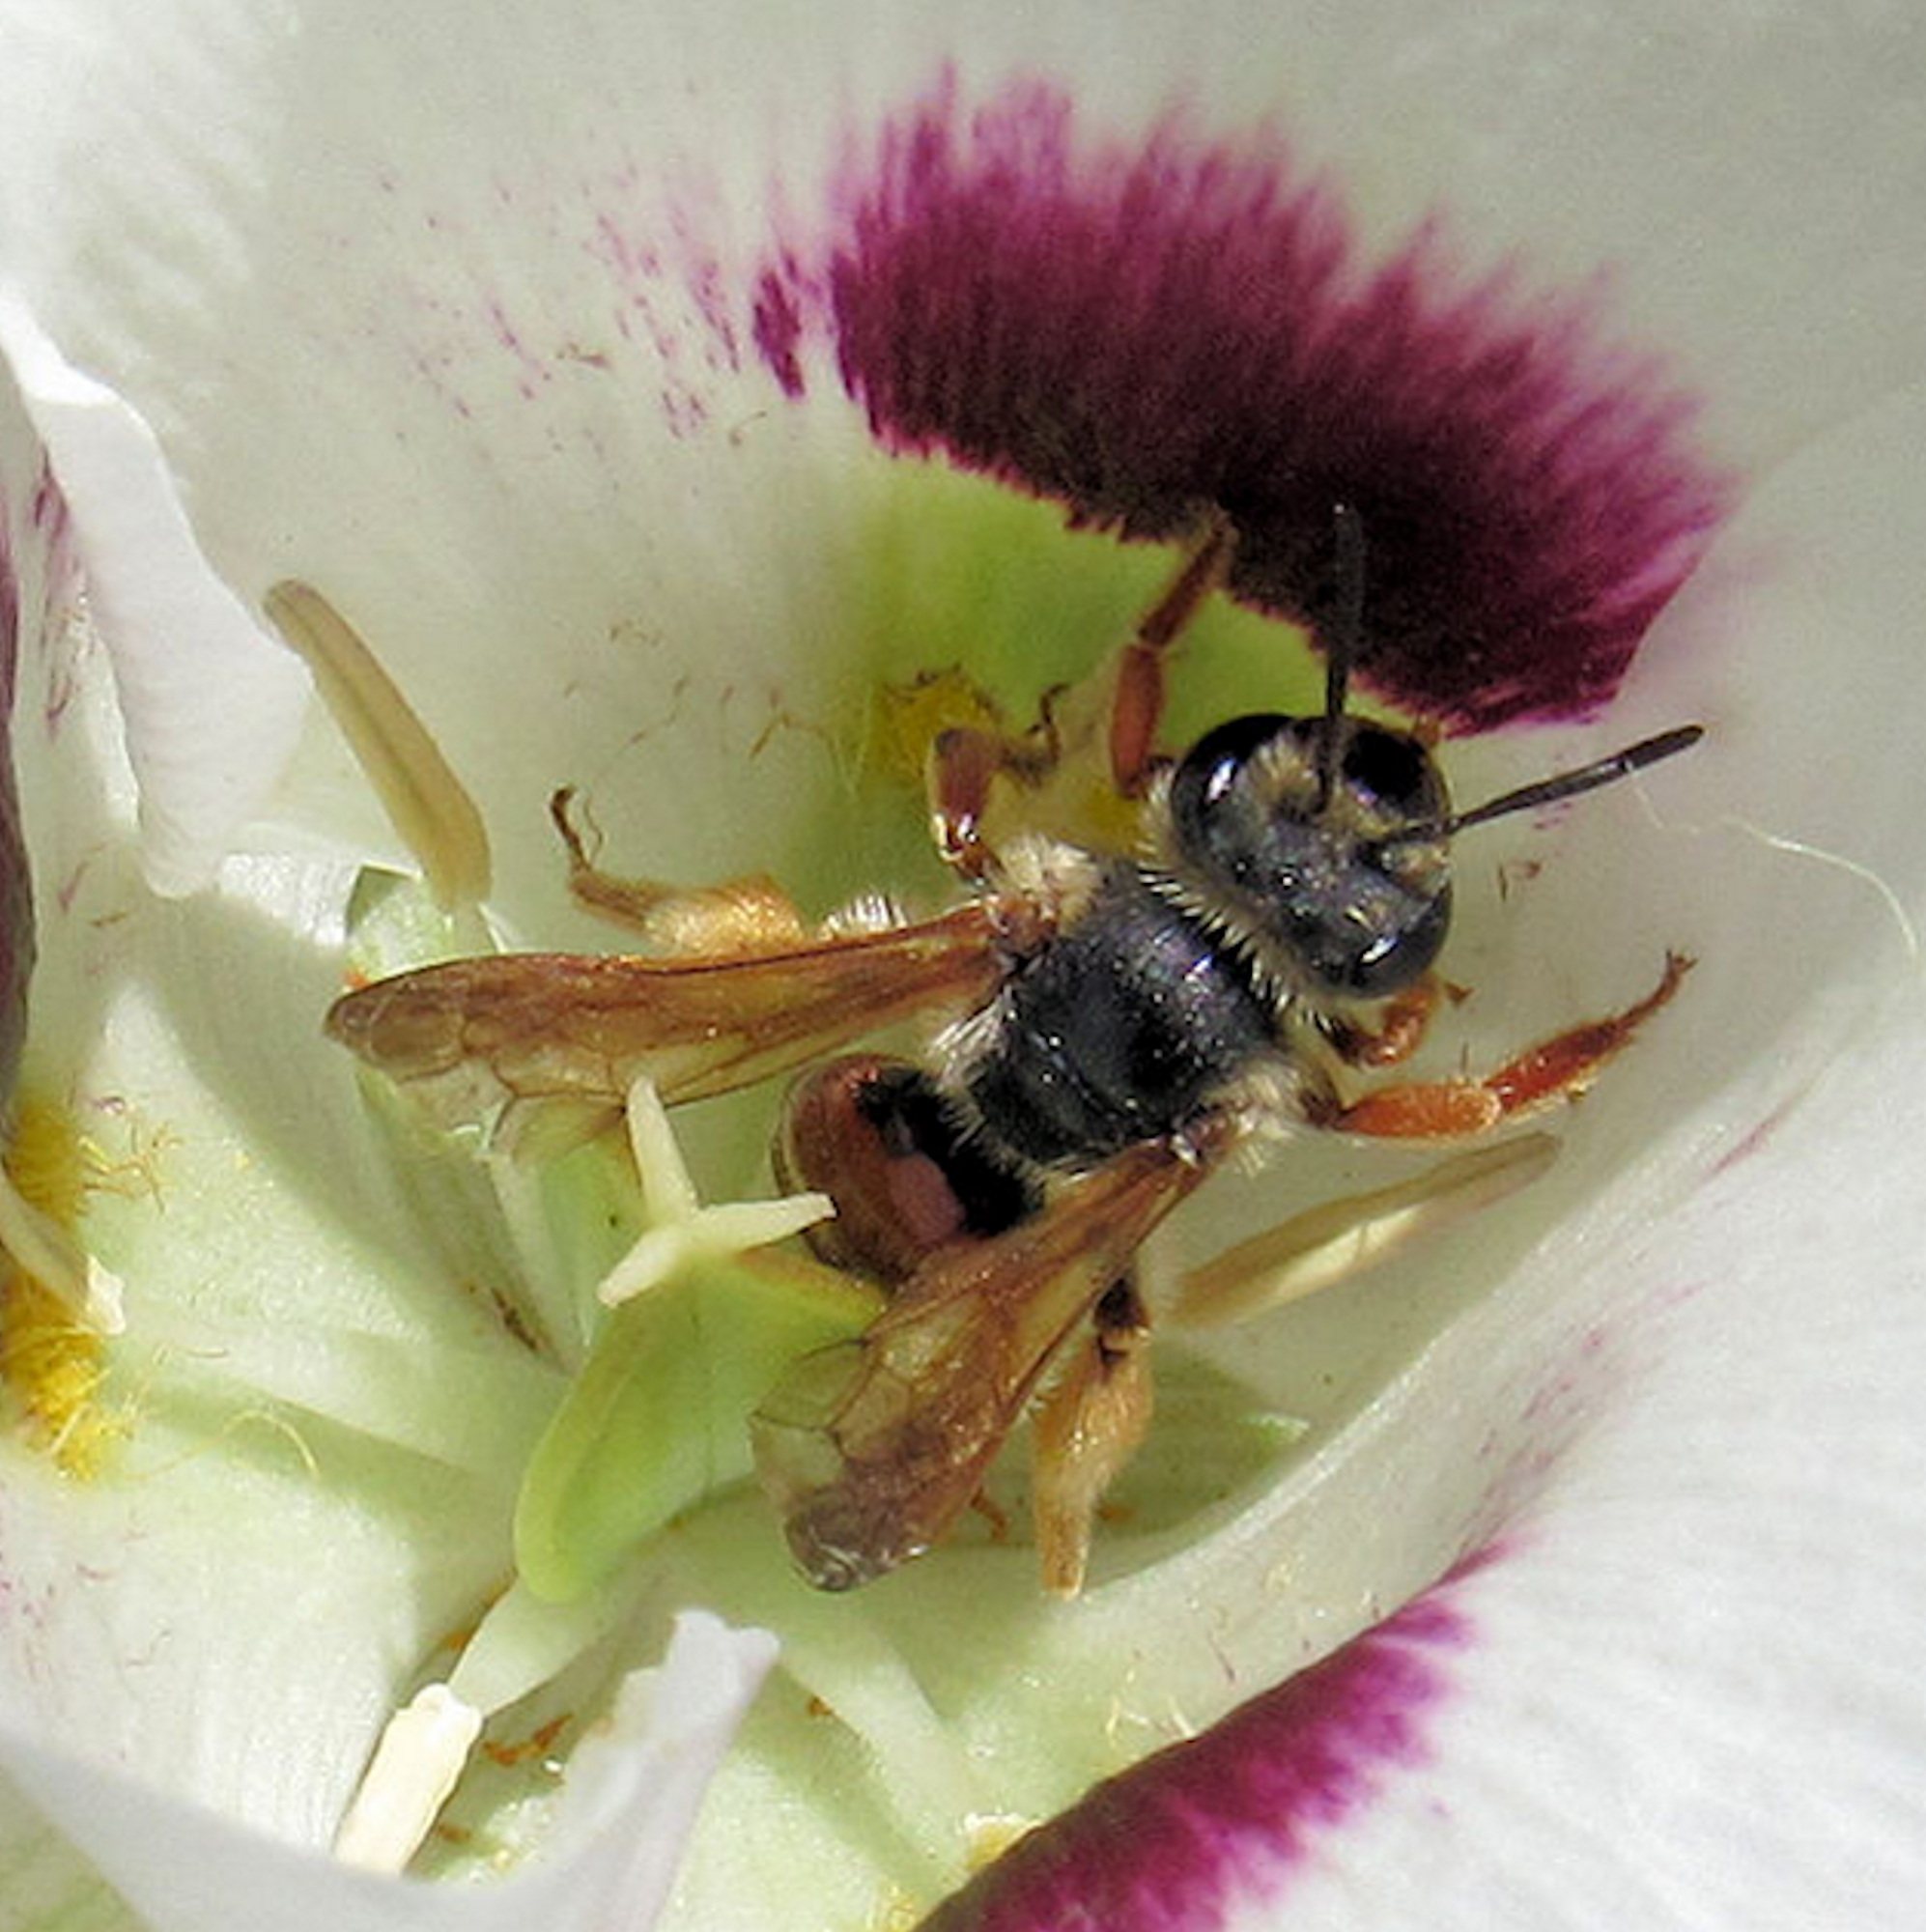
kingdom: Animalia
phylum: Arthropoda
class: Insecta
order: Hymenoptera
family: Andrenidae
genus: Andrena
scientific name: Andrena prunorum
